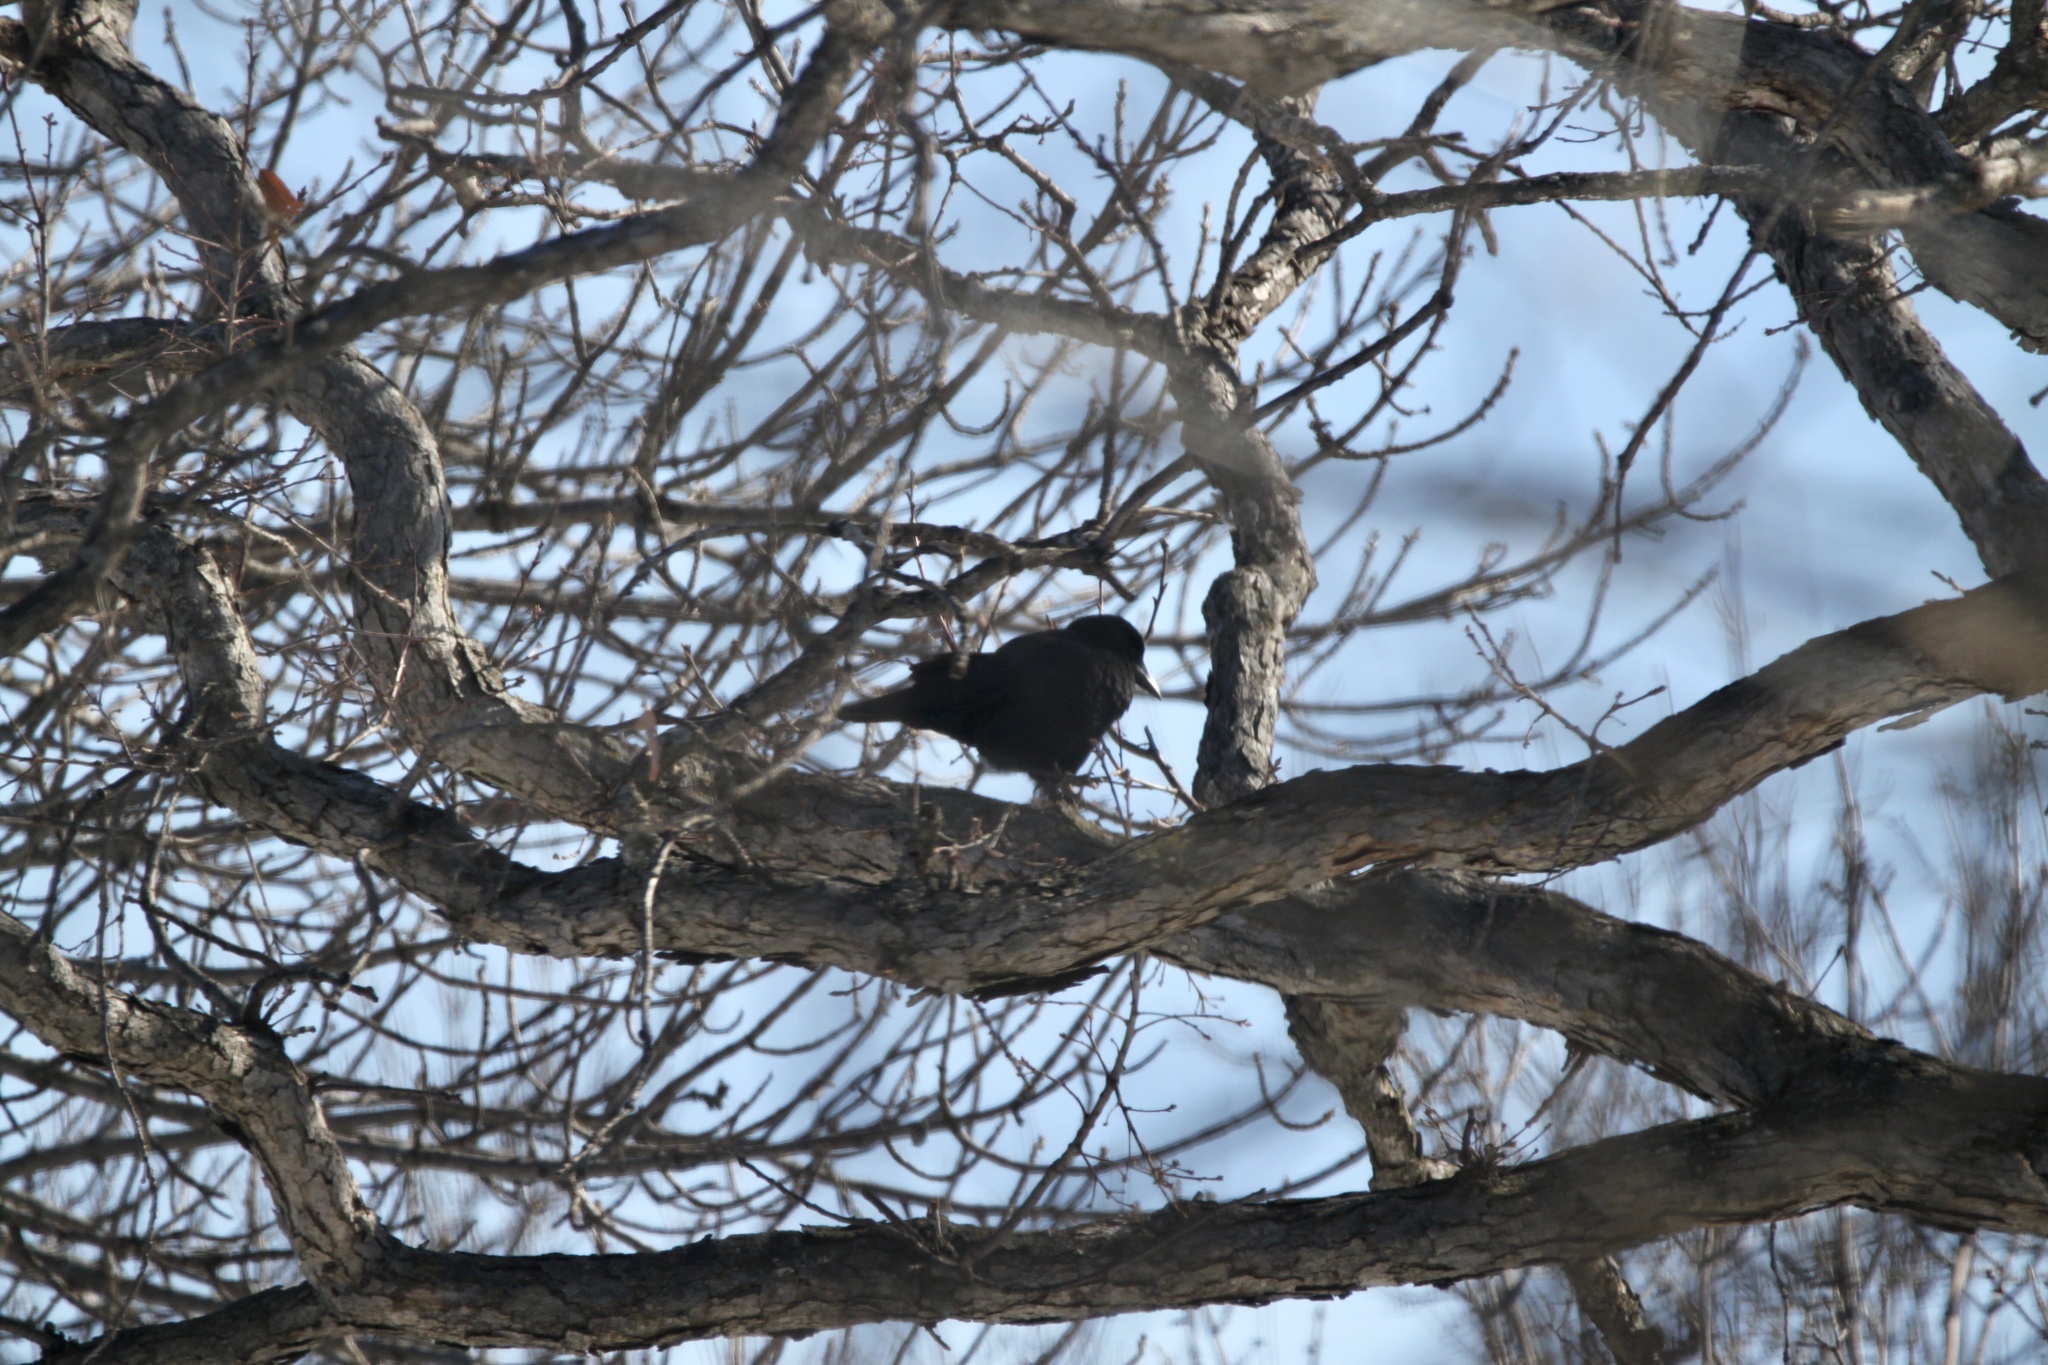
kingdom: Animalia
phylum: Chordata
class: Aves
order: Passeriformes
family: Corvidae
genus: Corvus
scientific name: Corvus brachyrhynchos
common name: American crow
